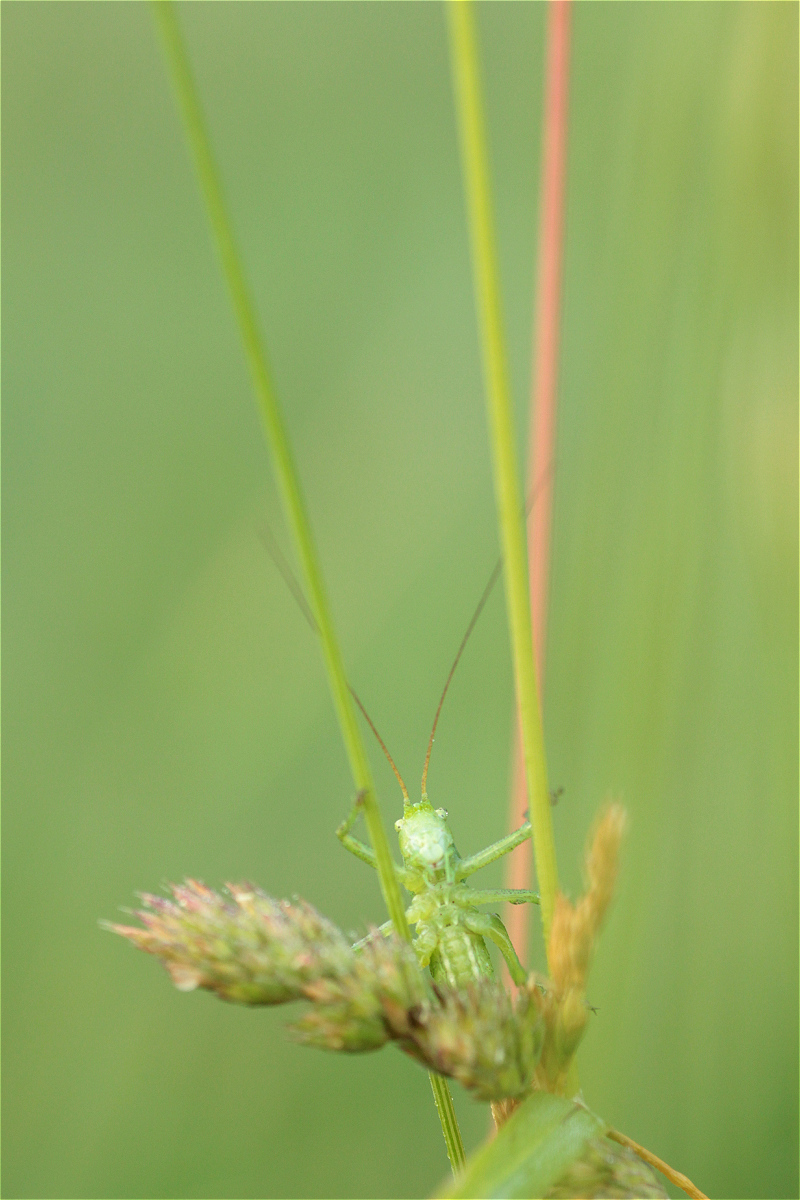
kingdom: Animalia
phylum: Arthropoda
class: Insecta
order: Orthoptera
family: Tettigoniidae
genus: Tettigonia
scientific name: Tettigonia viridissima
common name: Great green bush-cricket
